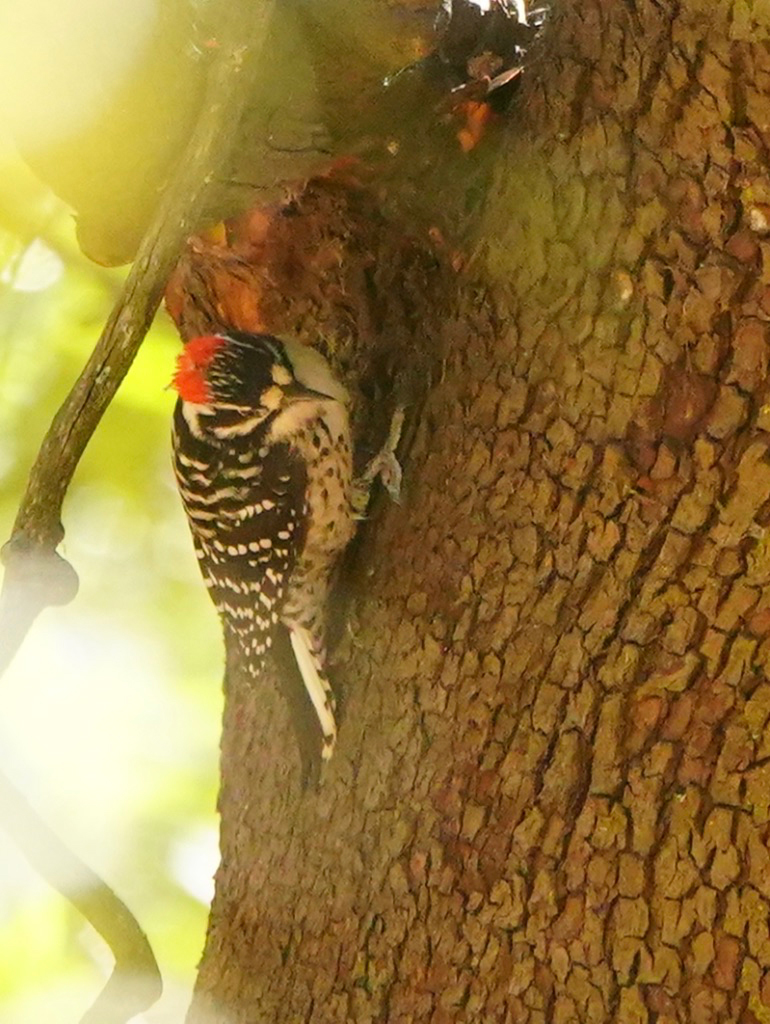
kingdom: Animalia
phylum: Chordata
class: Aves
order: Piciformes
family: Picidae
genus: Dryobates
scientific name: Dryobates nuttallii
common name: Nuttall's woodpecker
